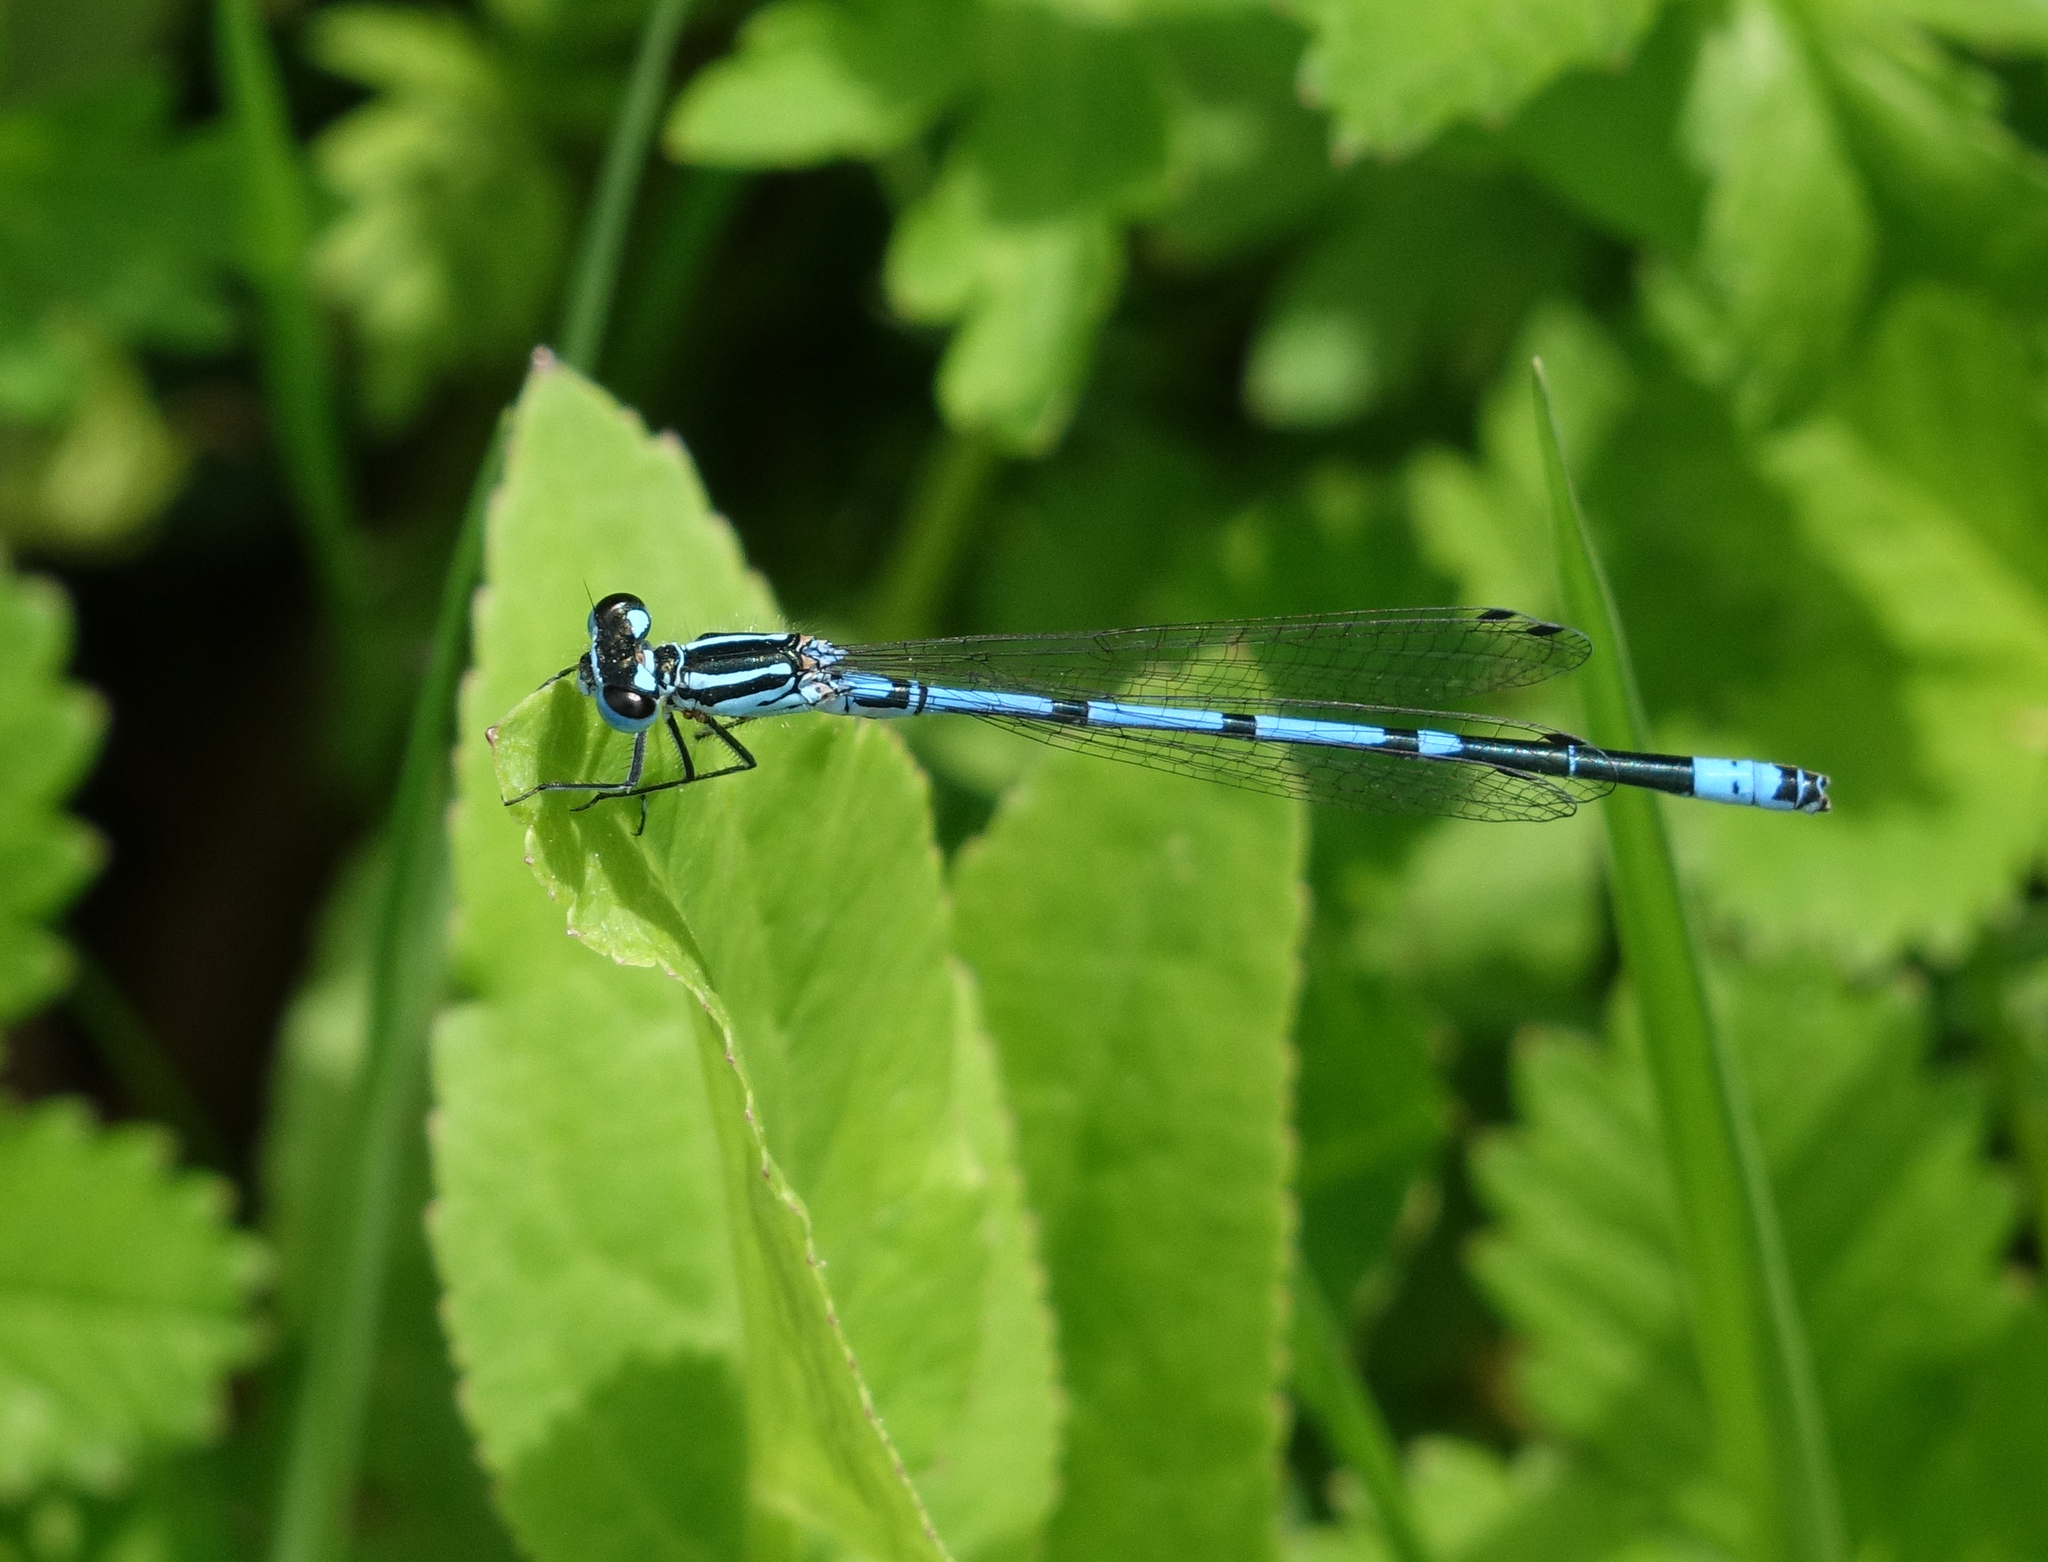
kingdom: Animalia
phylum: Arthropoda
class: Insecta
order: Odonata
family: Coenagrionidae
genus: Coenagrion
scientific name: Coenagrion puella
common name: Azure damselfly
